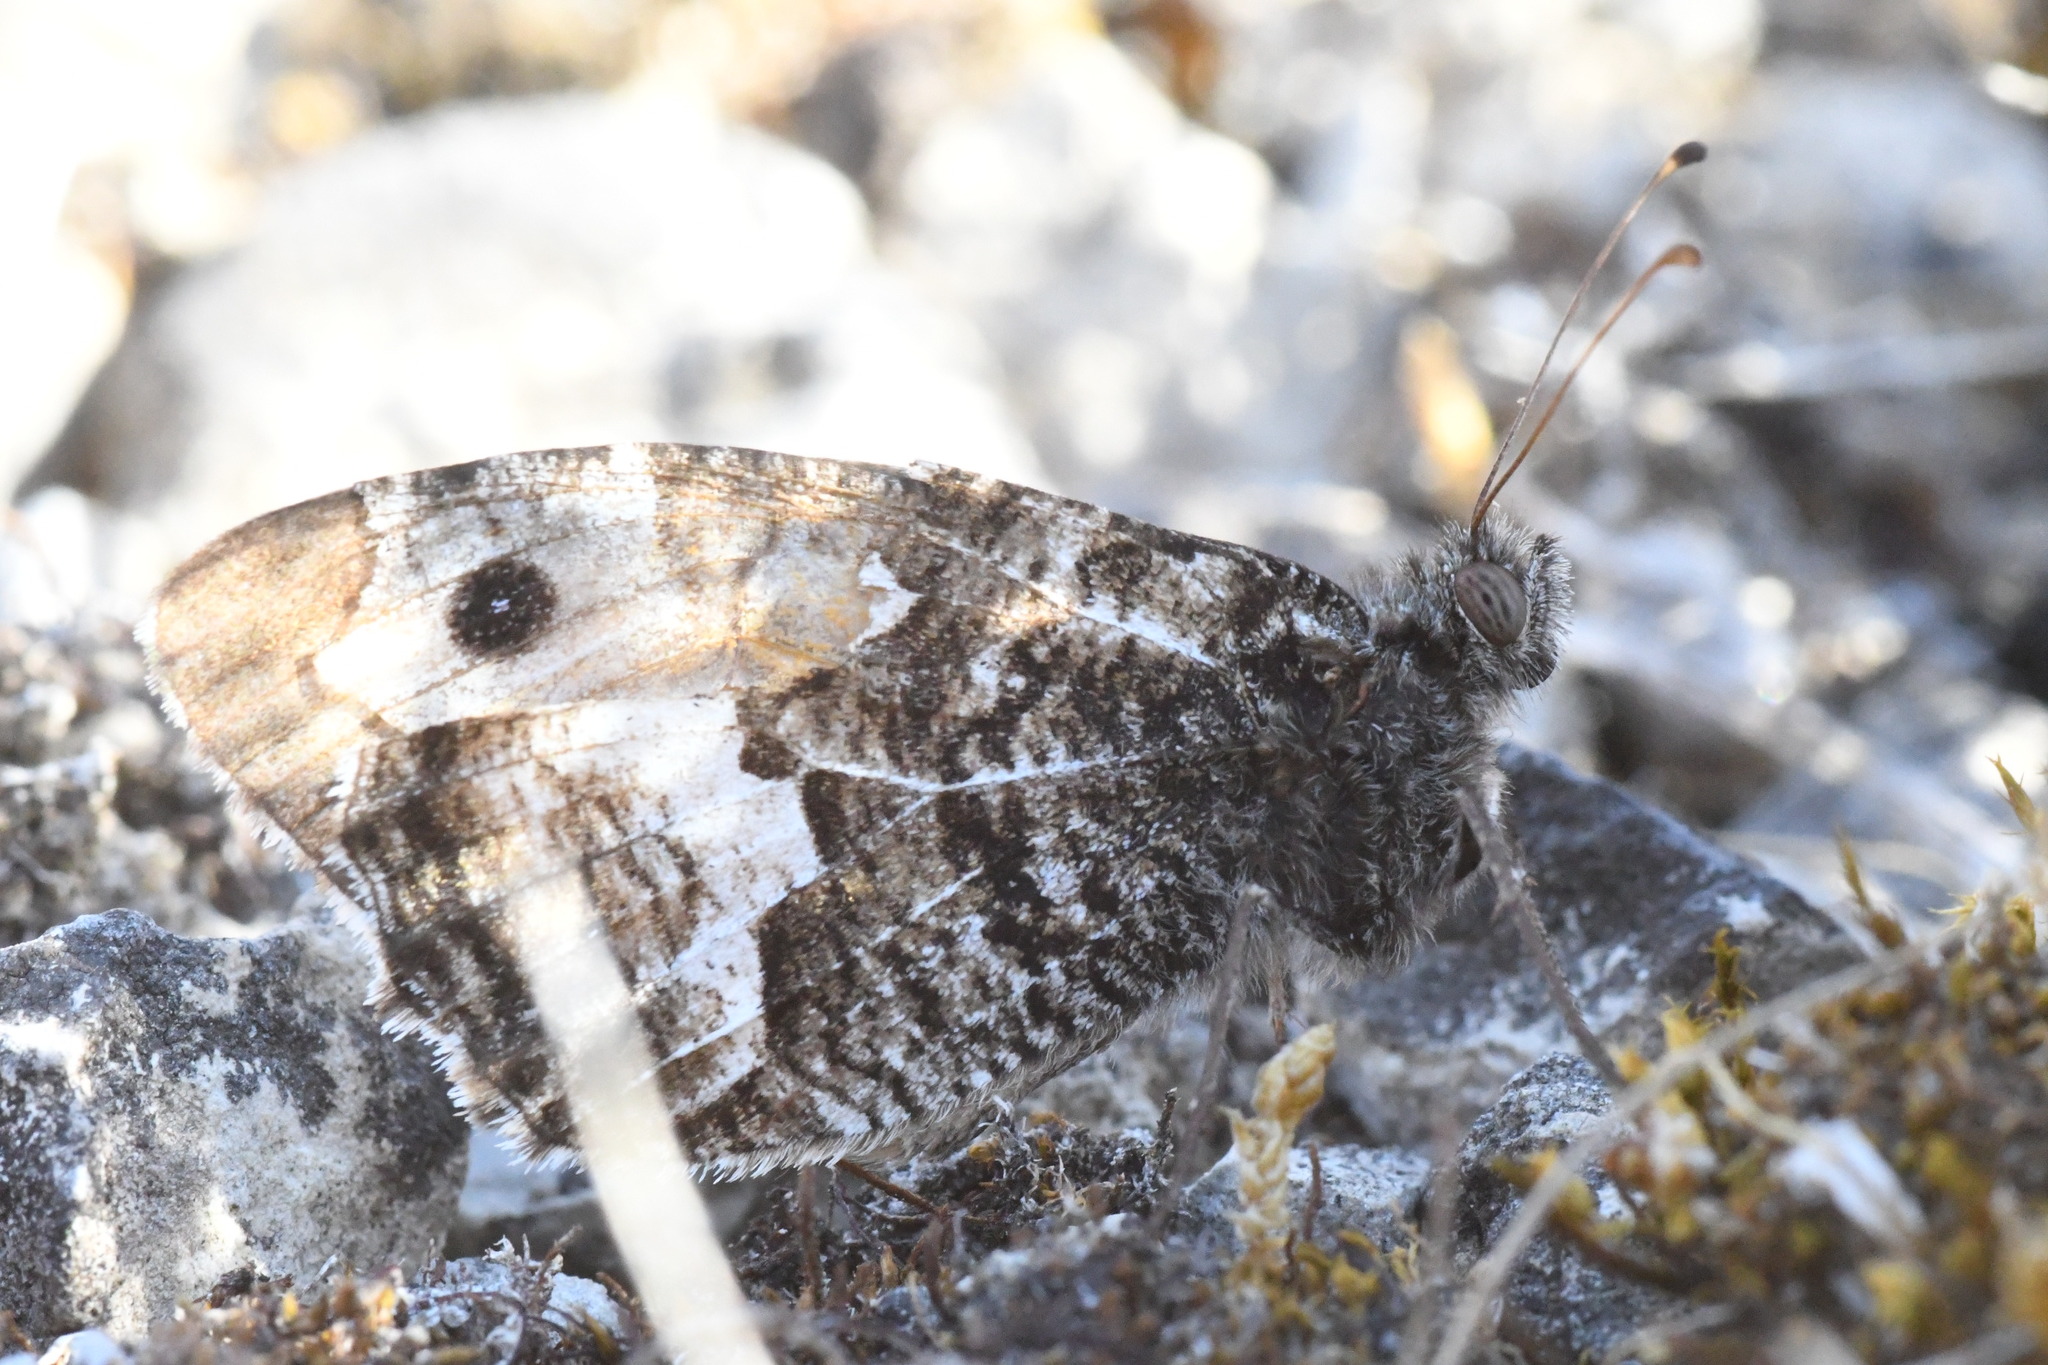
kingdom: Animalia
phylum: Arthropoda
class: Insecta
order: Lepidoptera
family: Nymphalidae
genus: Hipparchia
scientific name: Hipparchia semele
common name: Grayling
